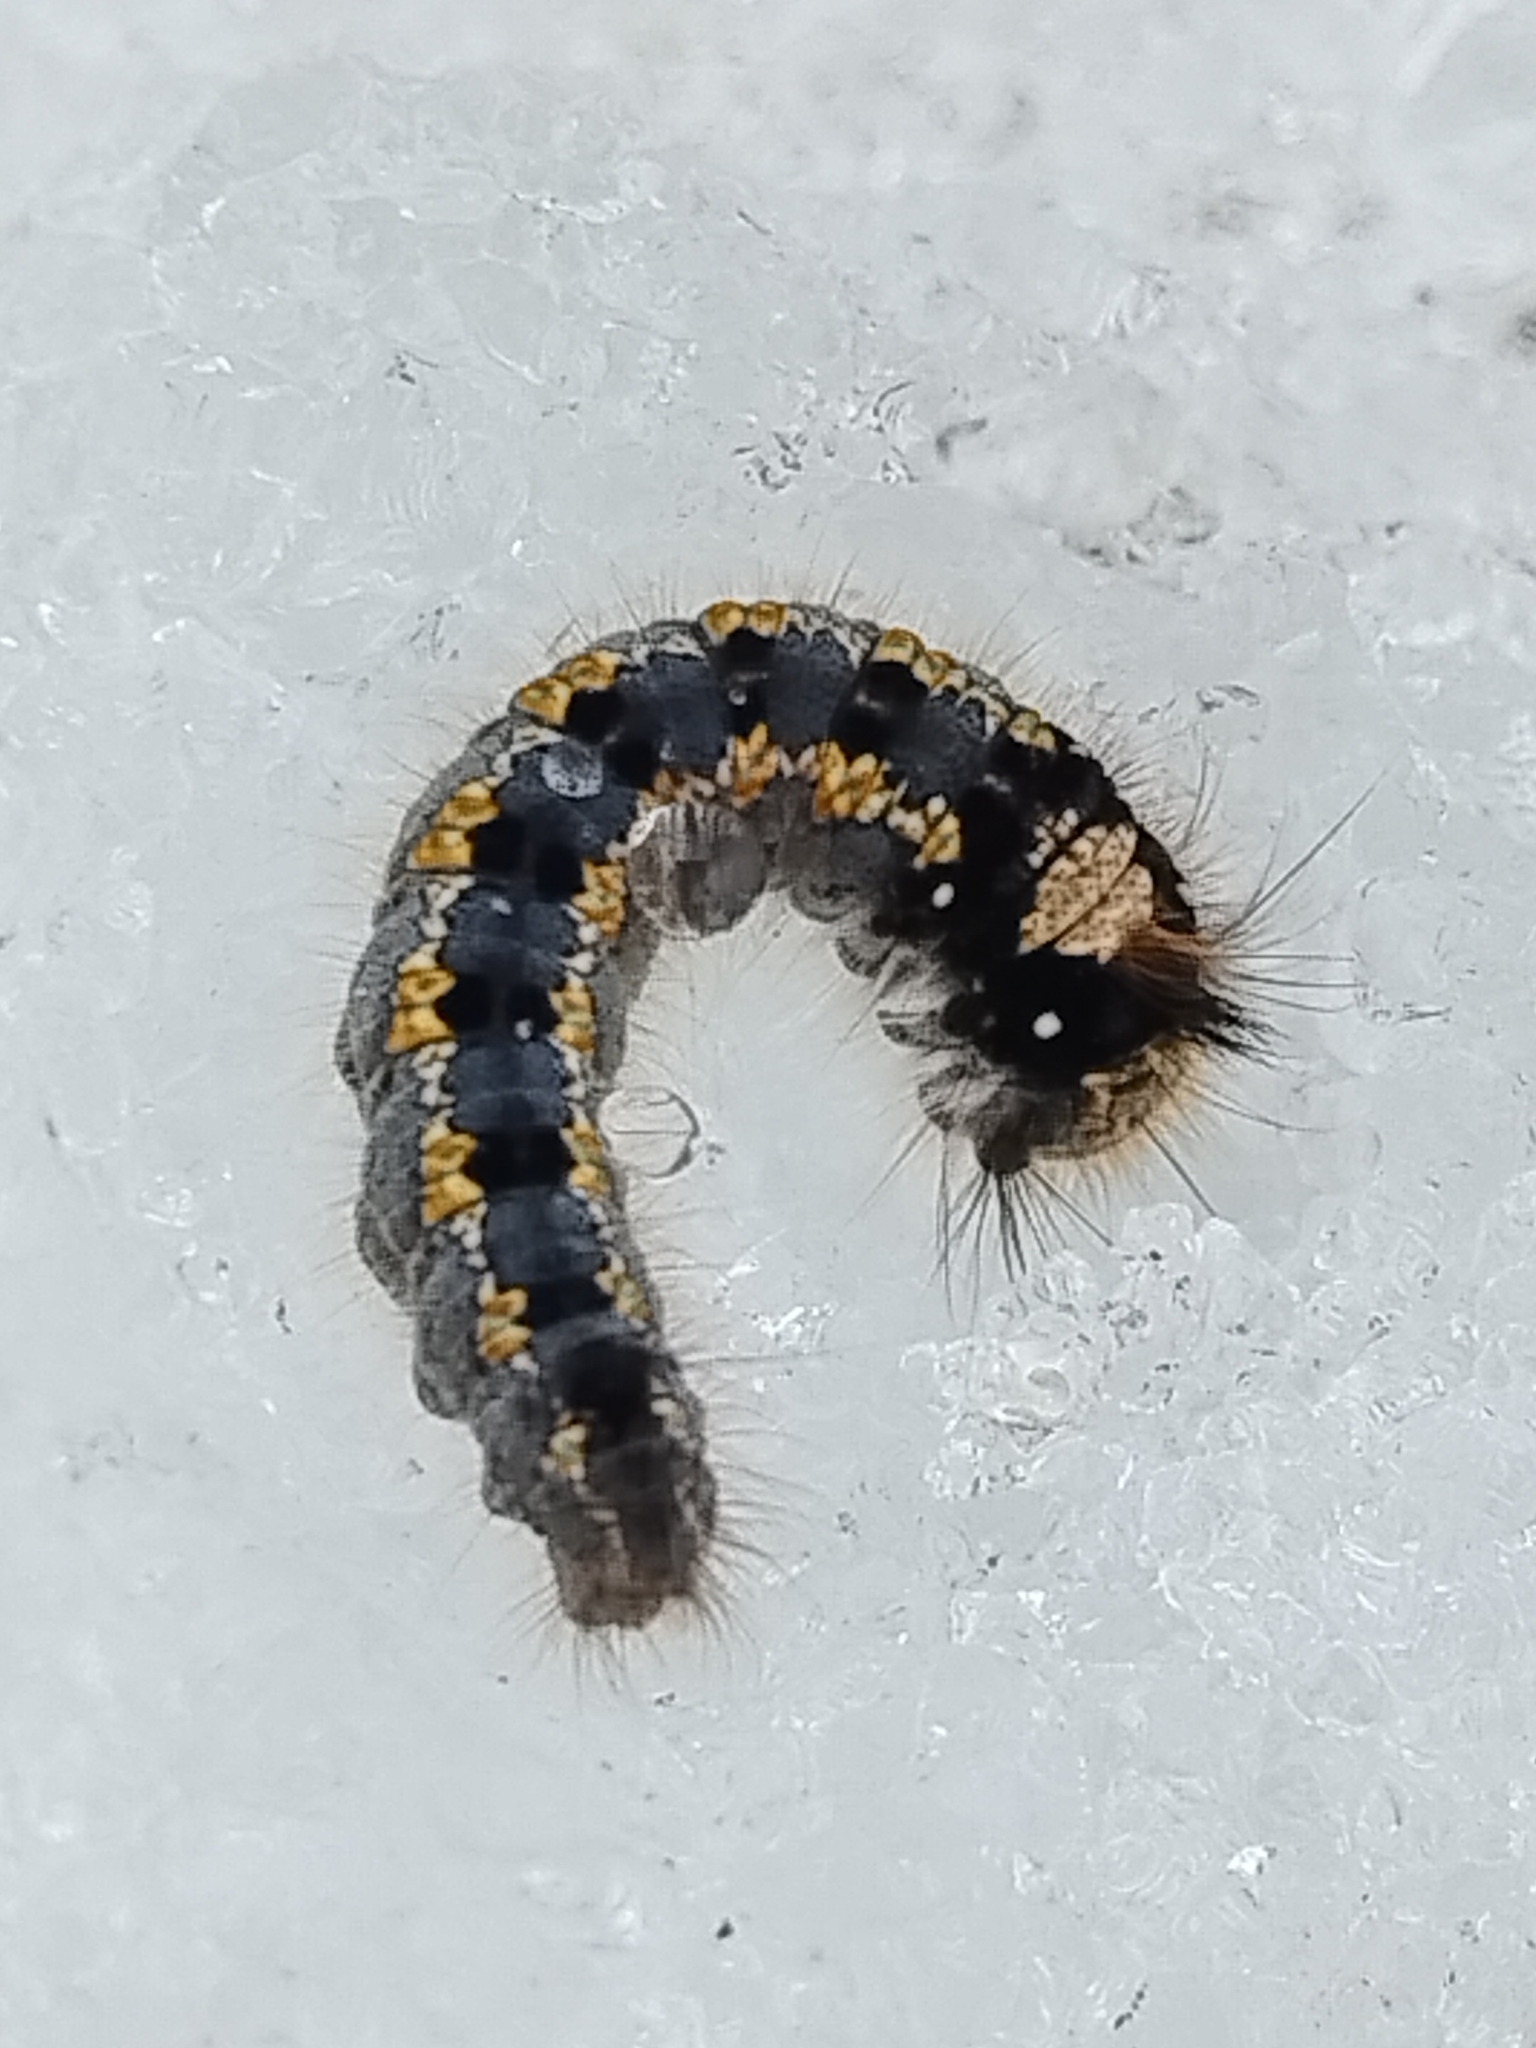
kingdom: Animalia
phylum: Arthropoda
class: Insecta
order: Lepidoptera
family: Lasiocampidae
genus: Euthrix
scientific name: Euthrix potatoria
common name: Drinker
